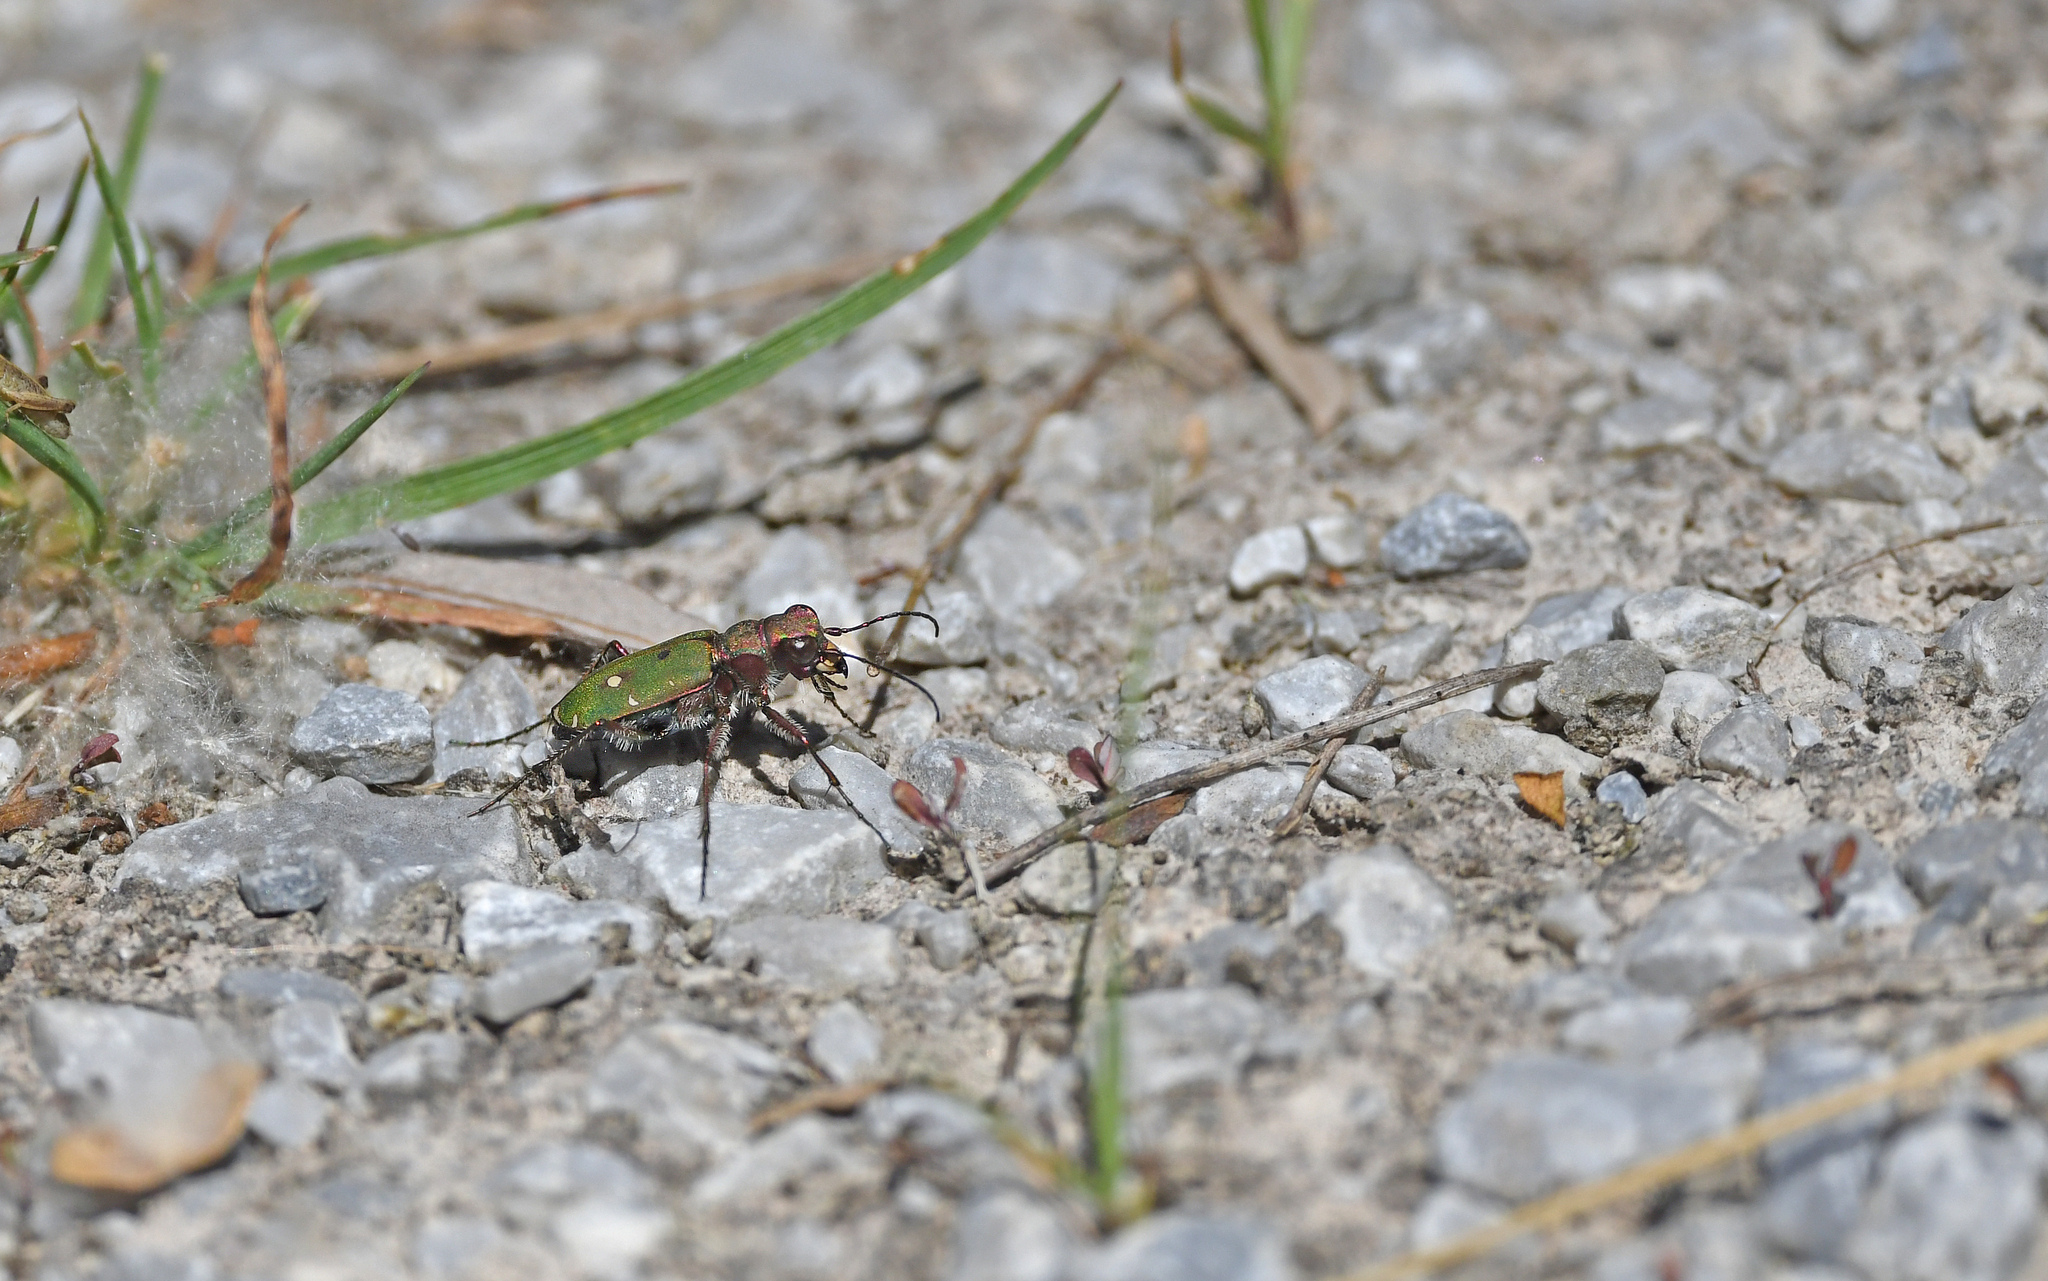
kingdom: Animalia
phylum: Arthropoda
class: Insecta
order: Coleoptera
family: Carabidae
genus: Cicindela
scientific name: Cicindela campestris
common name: Common tiger beetle
